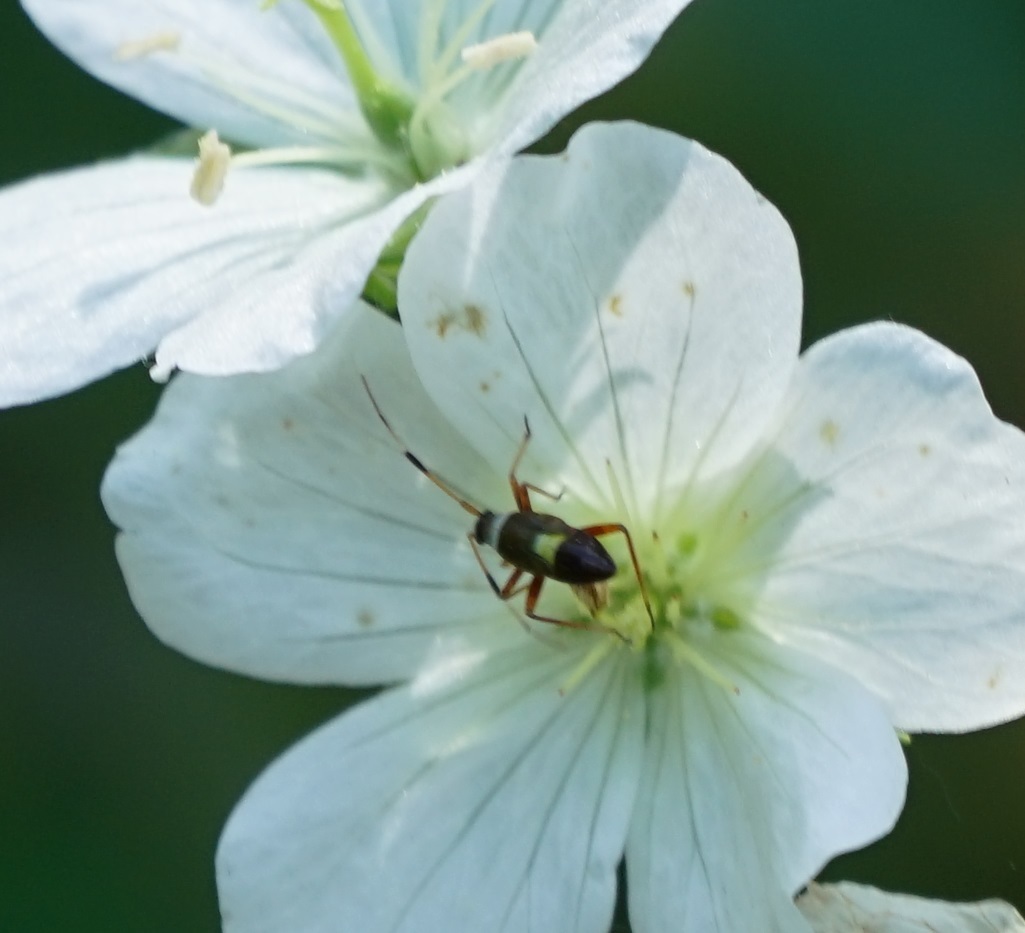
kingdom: Animalia
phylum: Arthropoda
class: Insecta
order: Hemiptera
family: Miridae
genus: Closterotomus
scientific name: Closterotomus biclavatus
